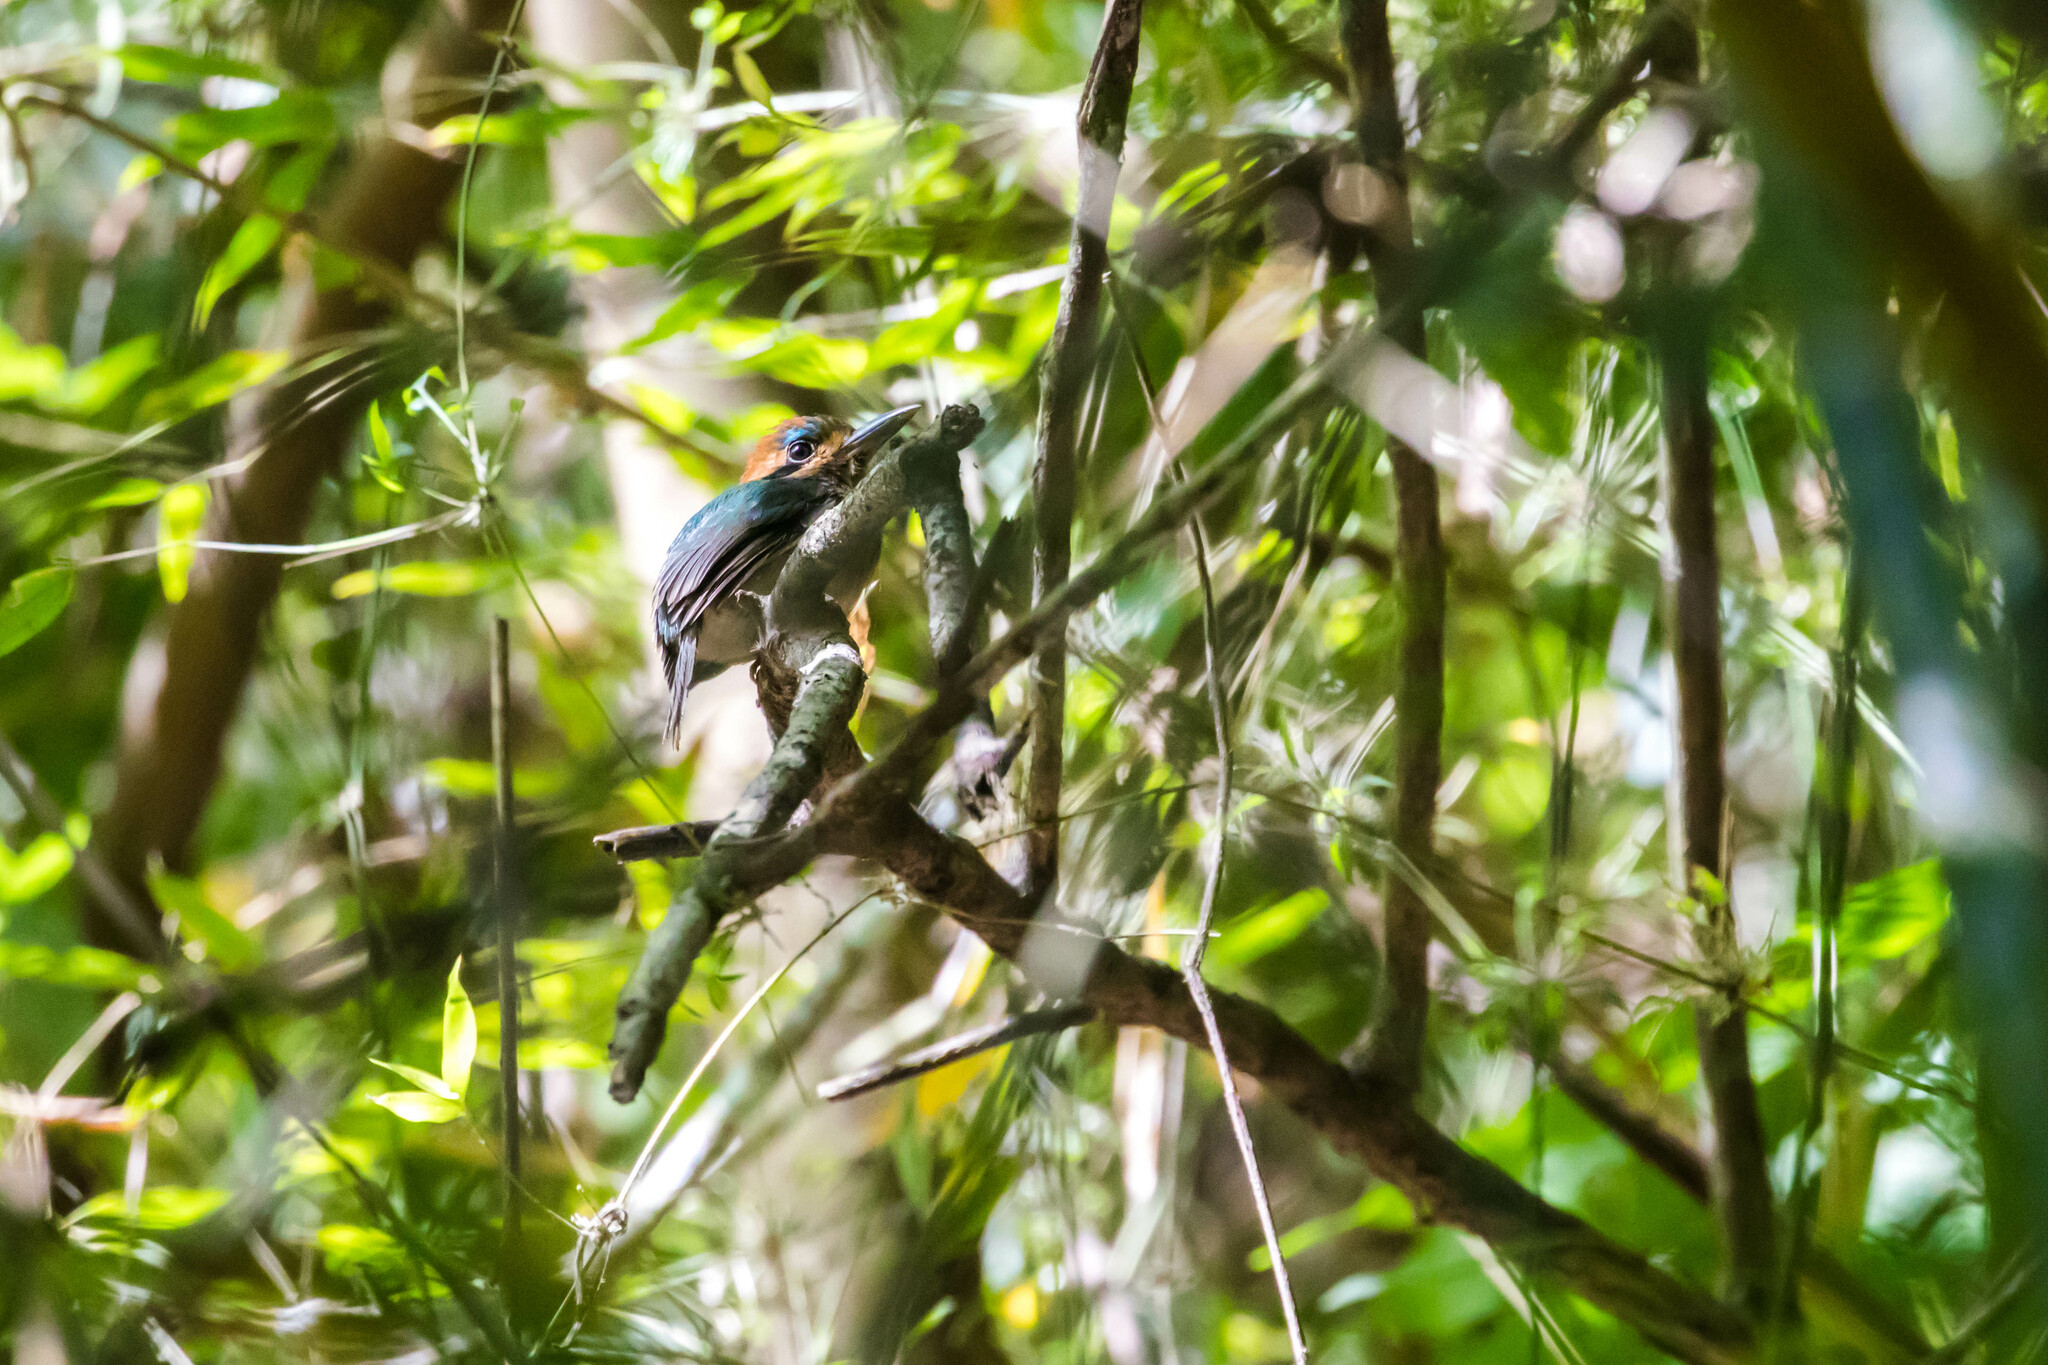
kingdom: Animalia
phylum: Chordata
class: Aves
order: Coraciiformes
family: Momotidae
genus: Hylomanes
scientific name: Hylomanes momotula
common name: Tody motmot
